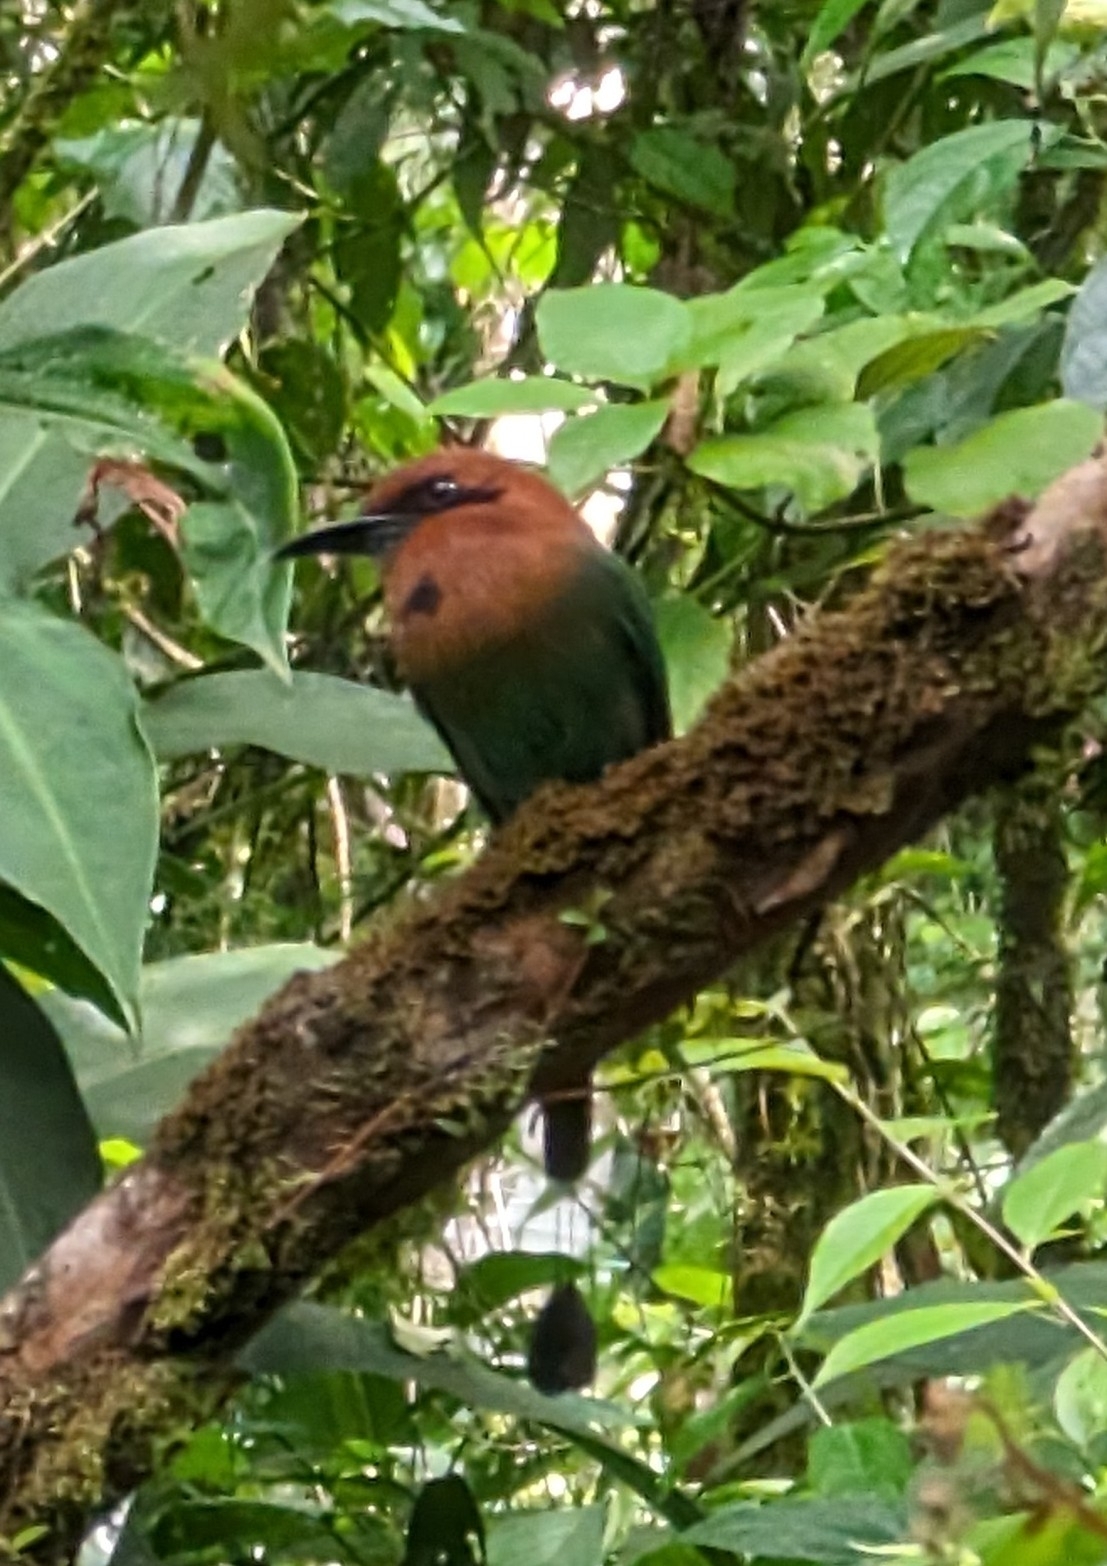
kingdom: Animalia
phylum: Chordata
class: Aves
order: Coraciiformes
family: Momotidae
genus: Electron
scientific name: Electron platyrhynchum
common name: Broad-billed motmot
